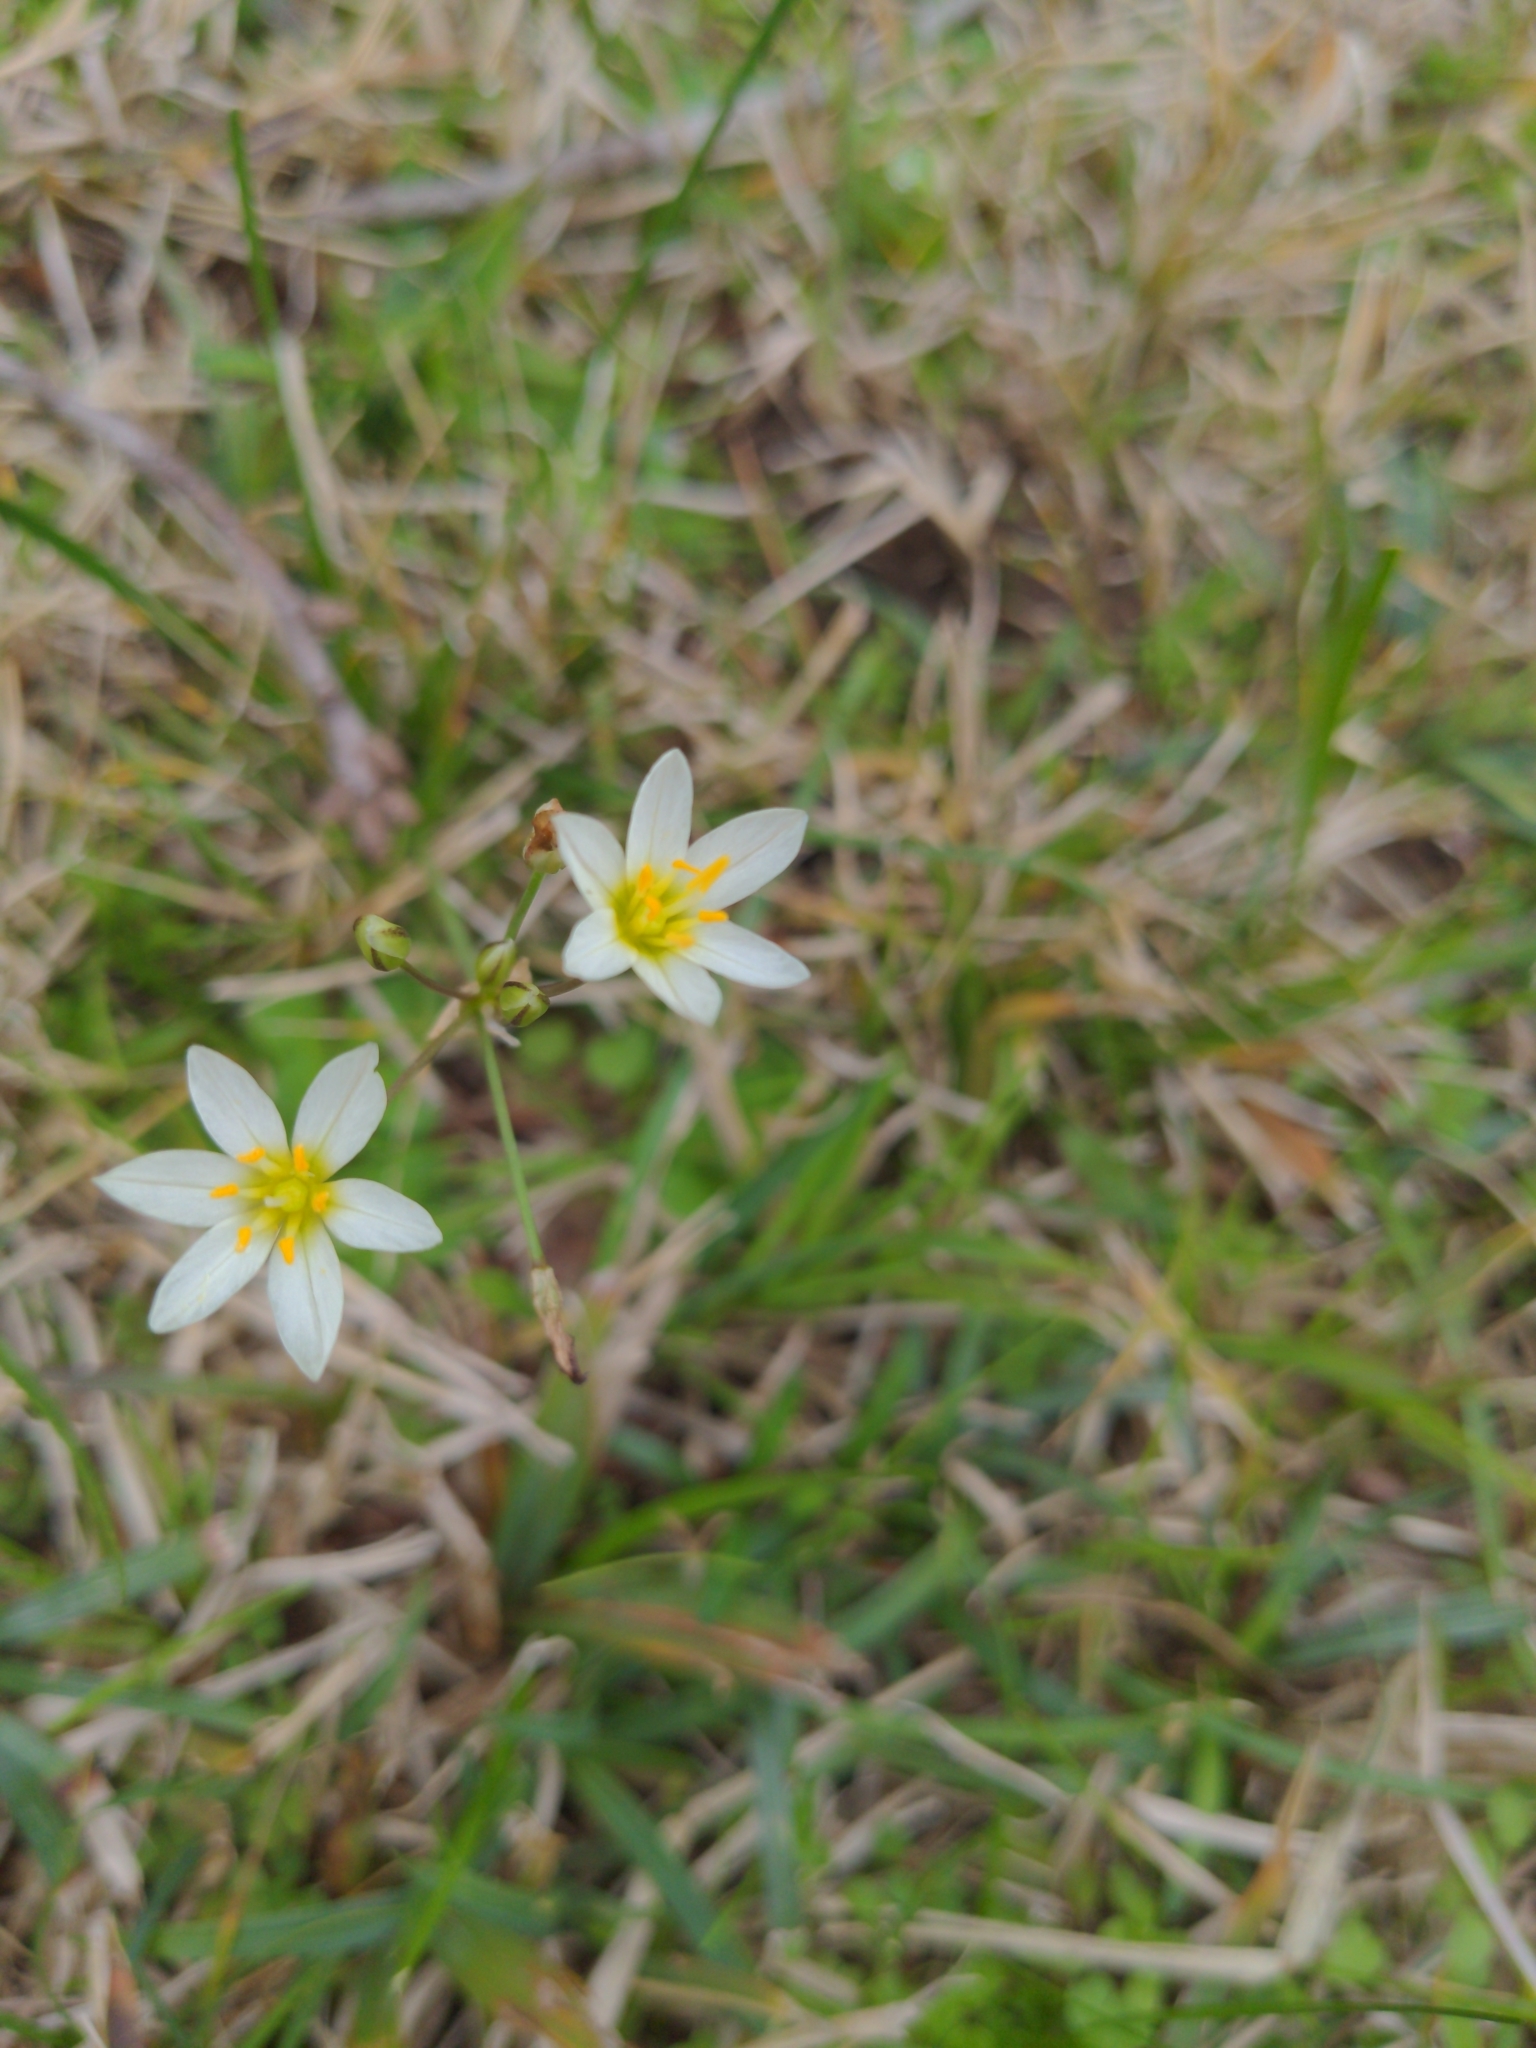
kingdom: Plantae
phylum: Tracheophyta
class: Liliopsida
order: Asparagales
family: Amaryllidaceae
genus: Nothoscordum
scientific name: Nothoscordum bivalve
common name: Crow-poison
